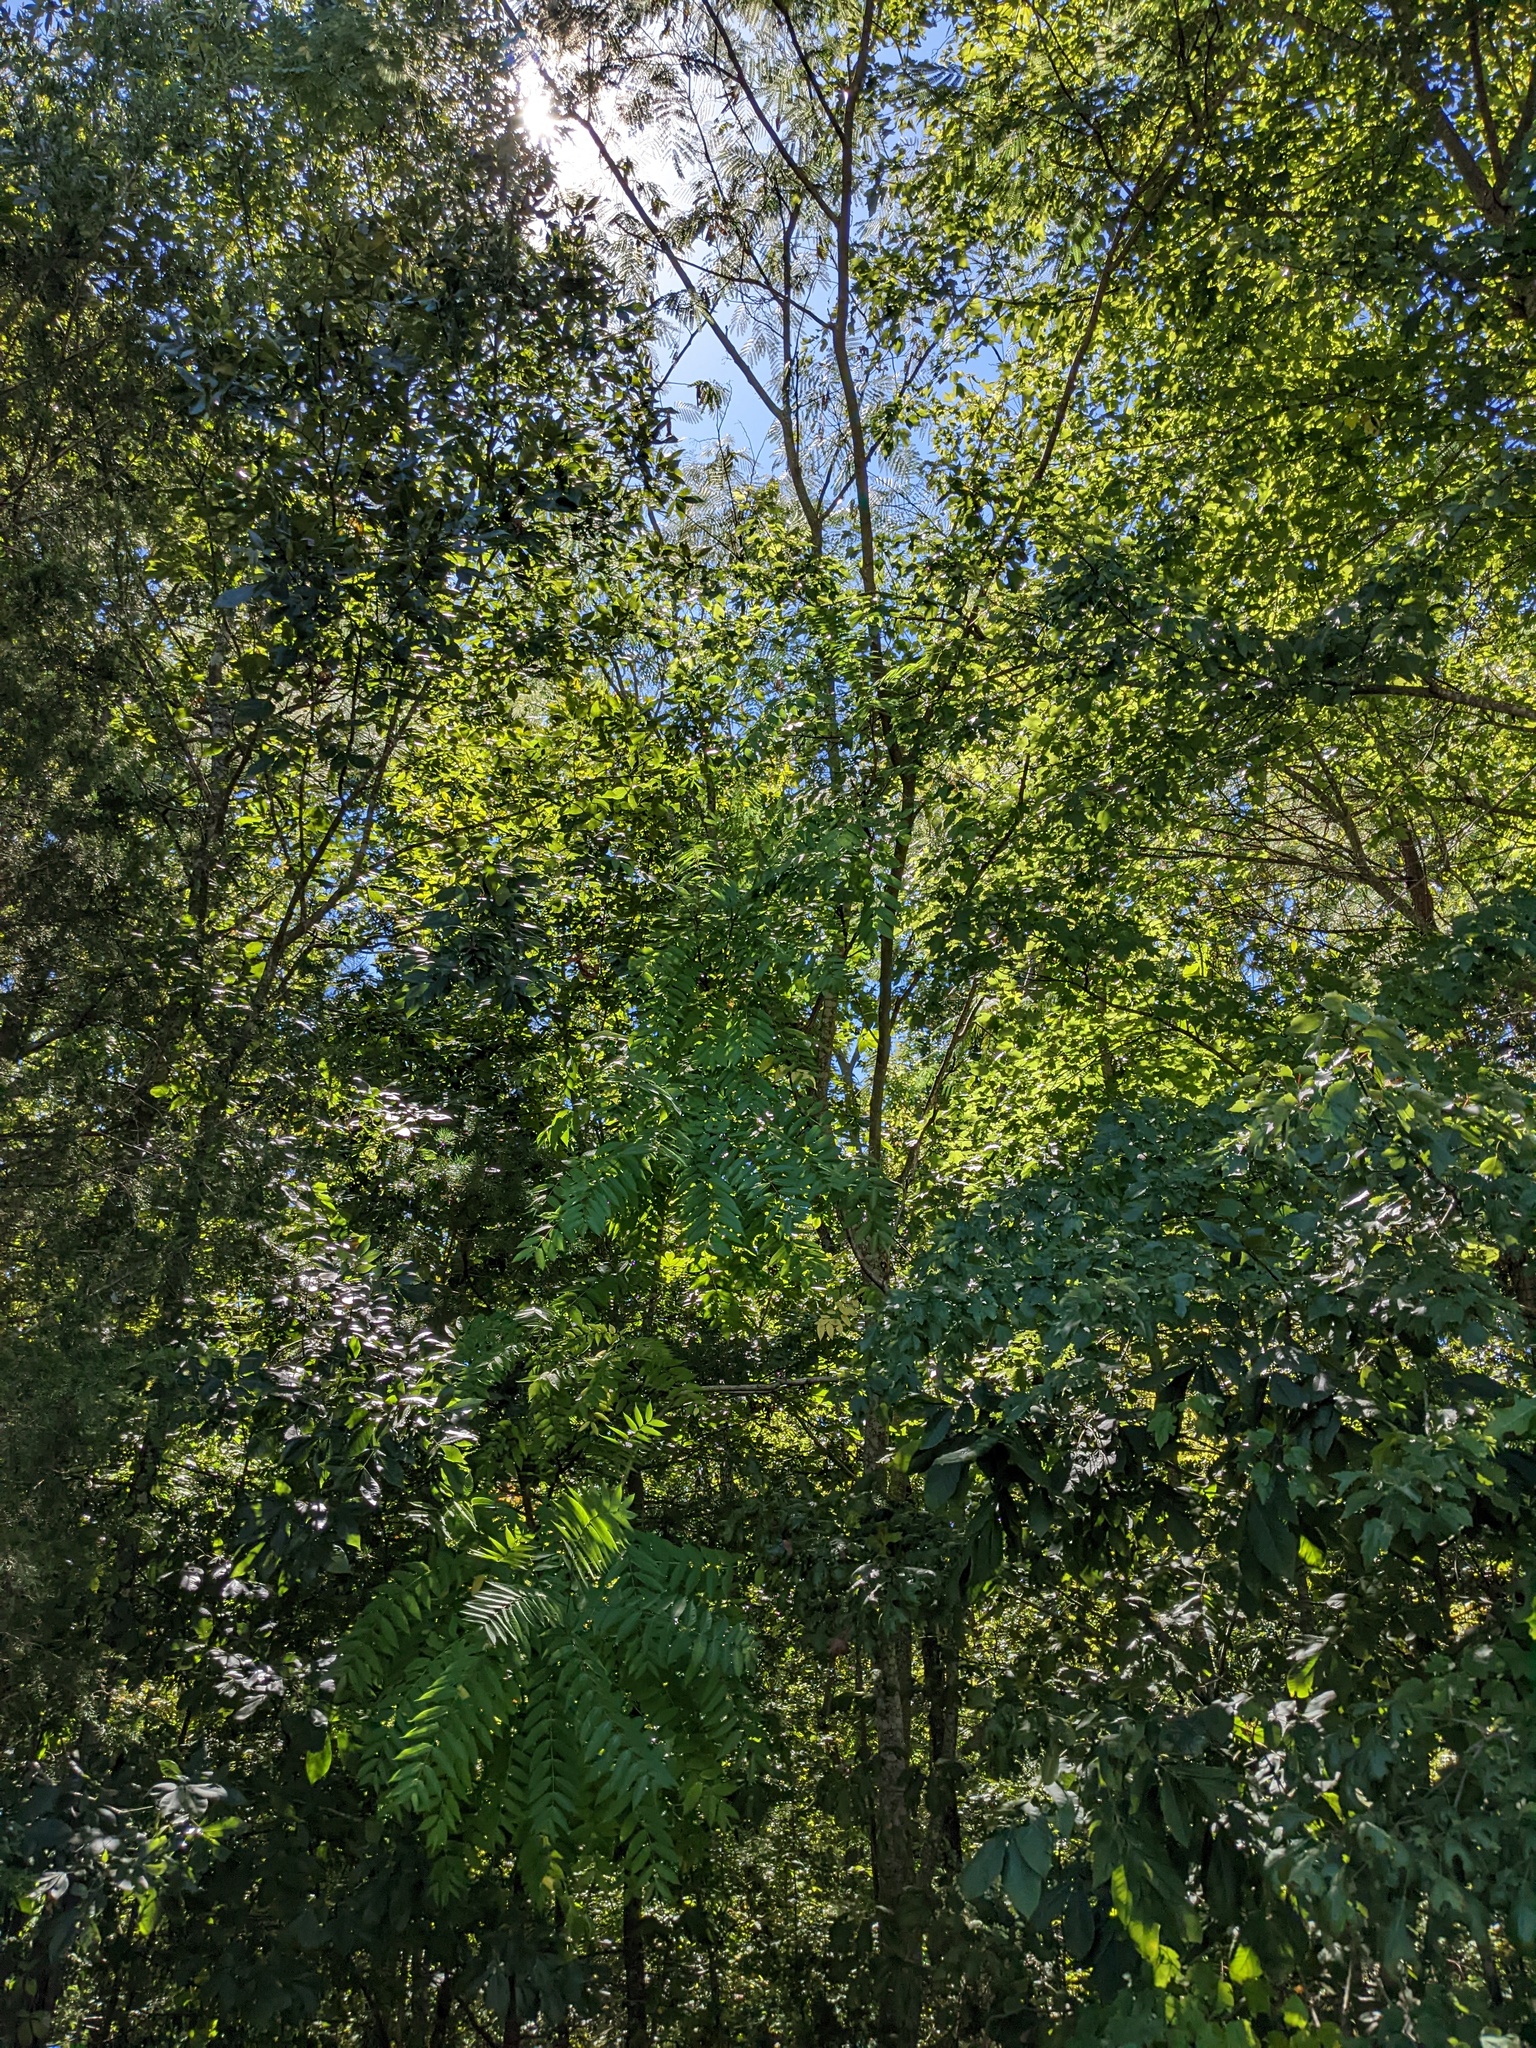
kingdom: Plantae
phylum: Tracheophyta
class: Magnoliopsida
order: Sapindales
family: Simaroubaceae
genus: Ailanthus
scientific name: Ailanthus altissima
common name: Tree-of-heaven
